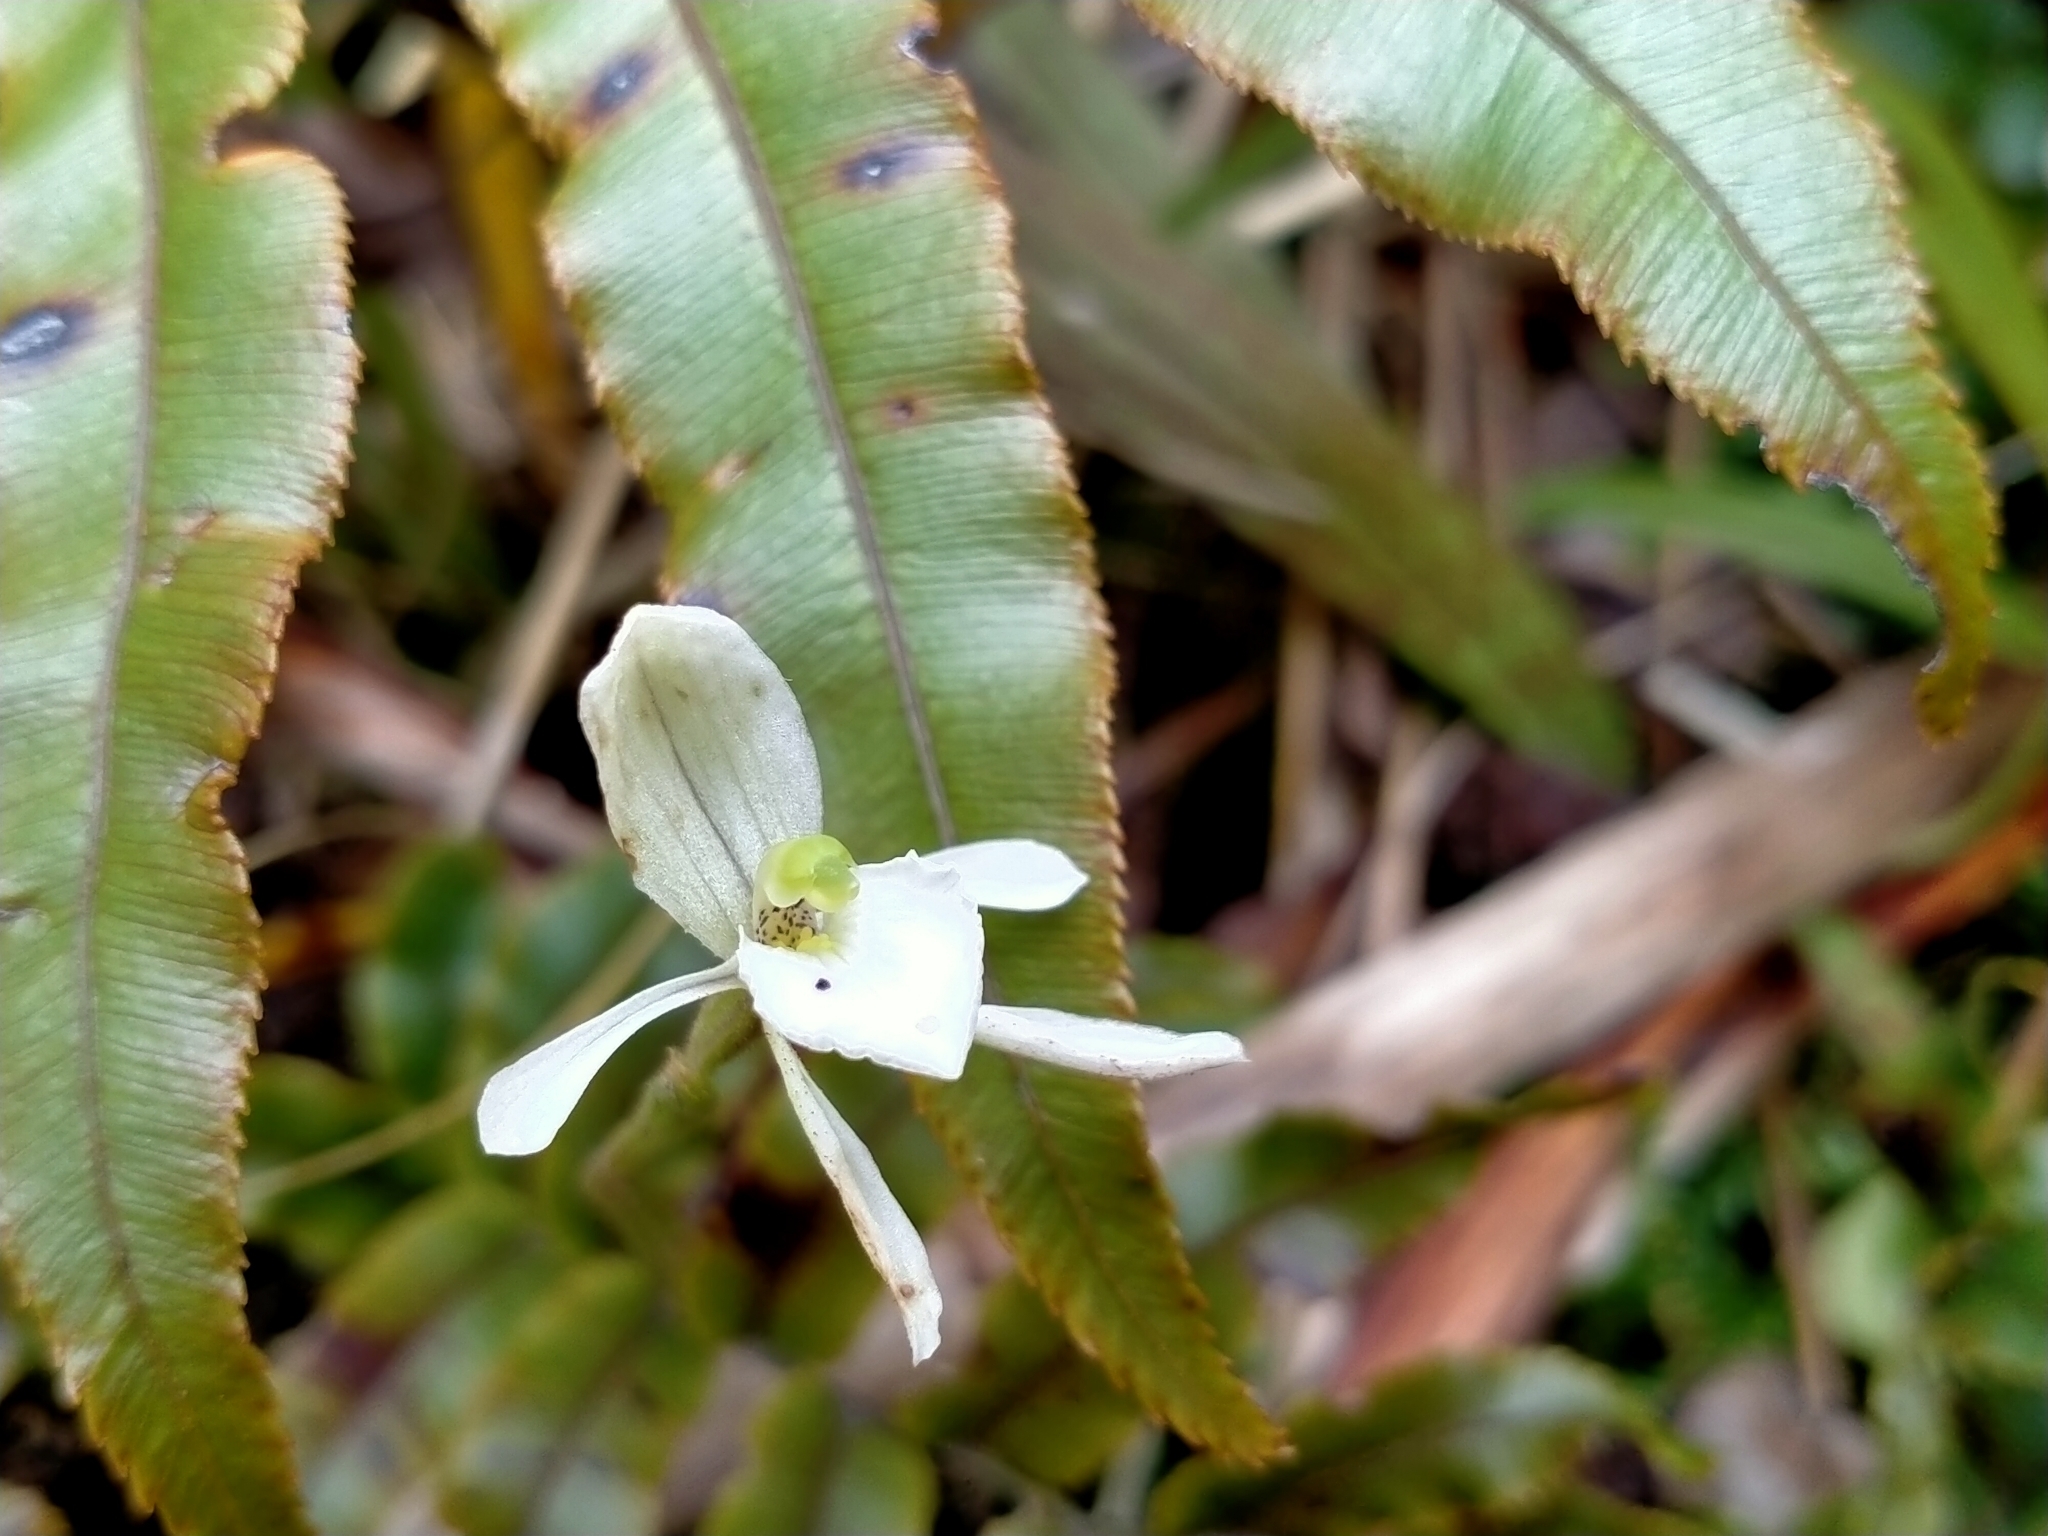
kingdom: Plantae
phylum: Tracheophyta
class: Liliopsida
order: Asparagales
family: Orchidaceae
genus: Aporostylis
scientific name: Aporostylis bifolia
